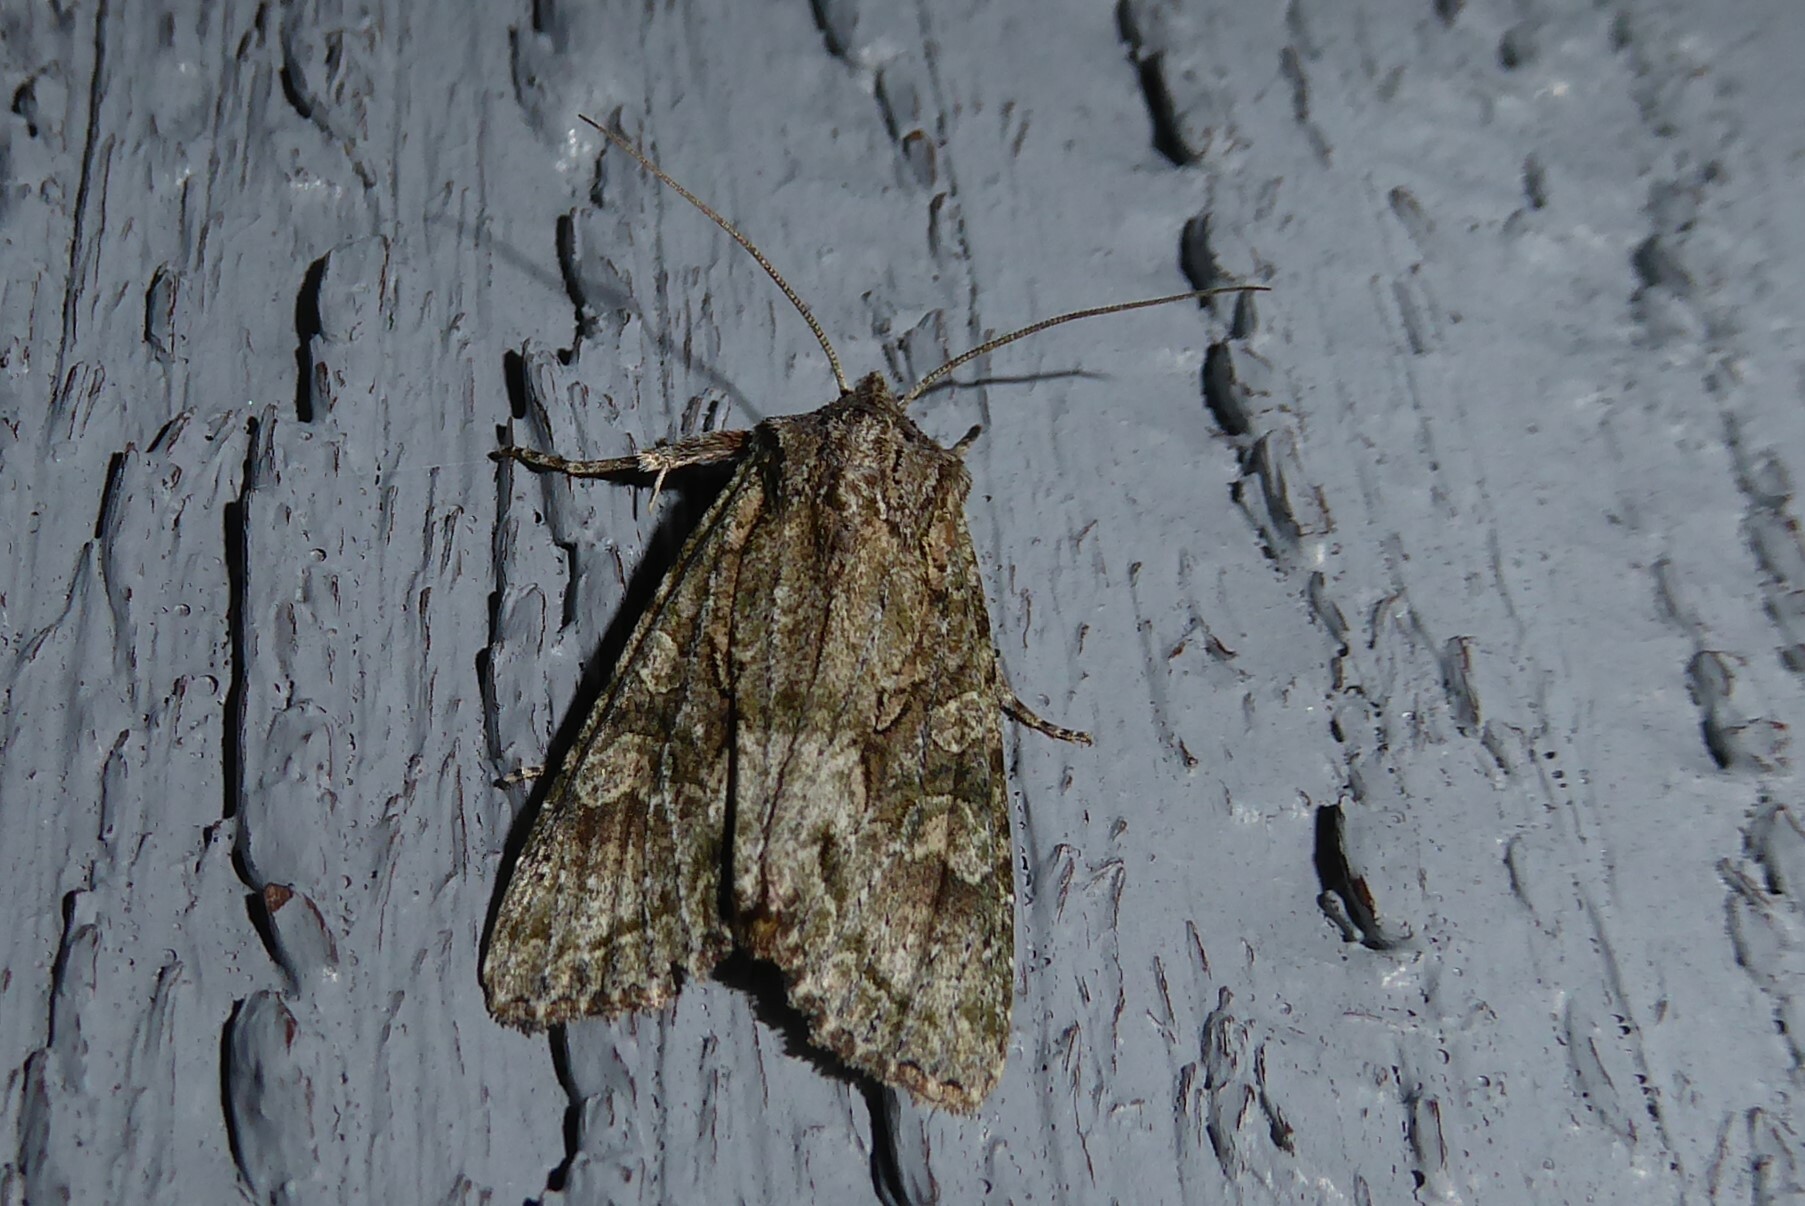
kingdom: Animalia
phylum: Arthropoda
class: Insecta
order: Lepidoptera
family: Noctuidae
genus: Ichneutica
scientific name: Ichneutica mutans
